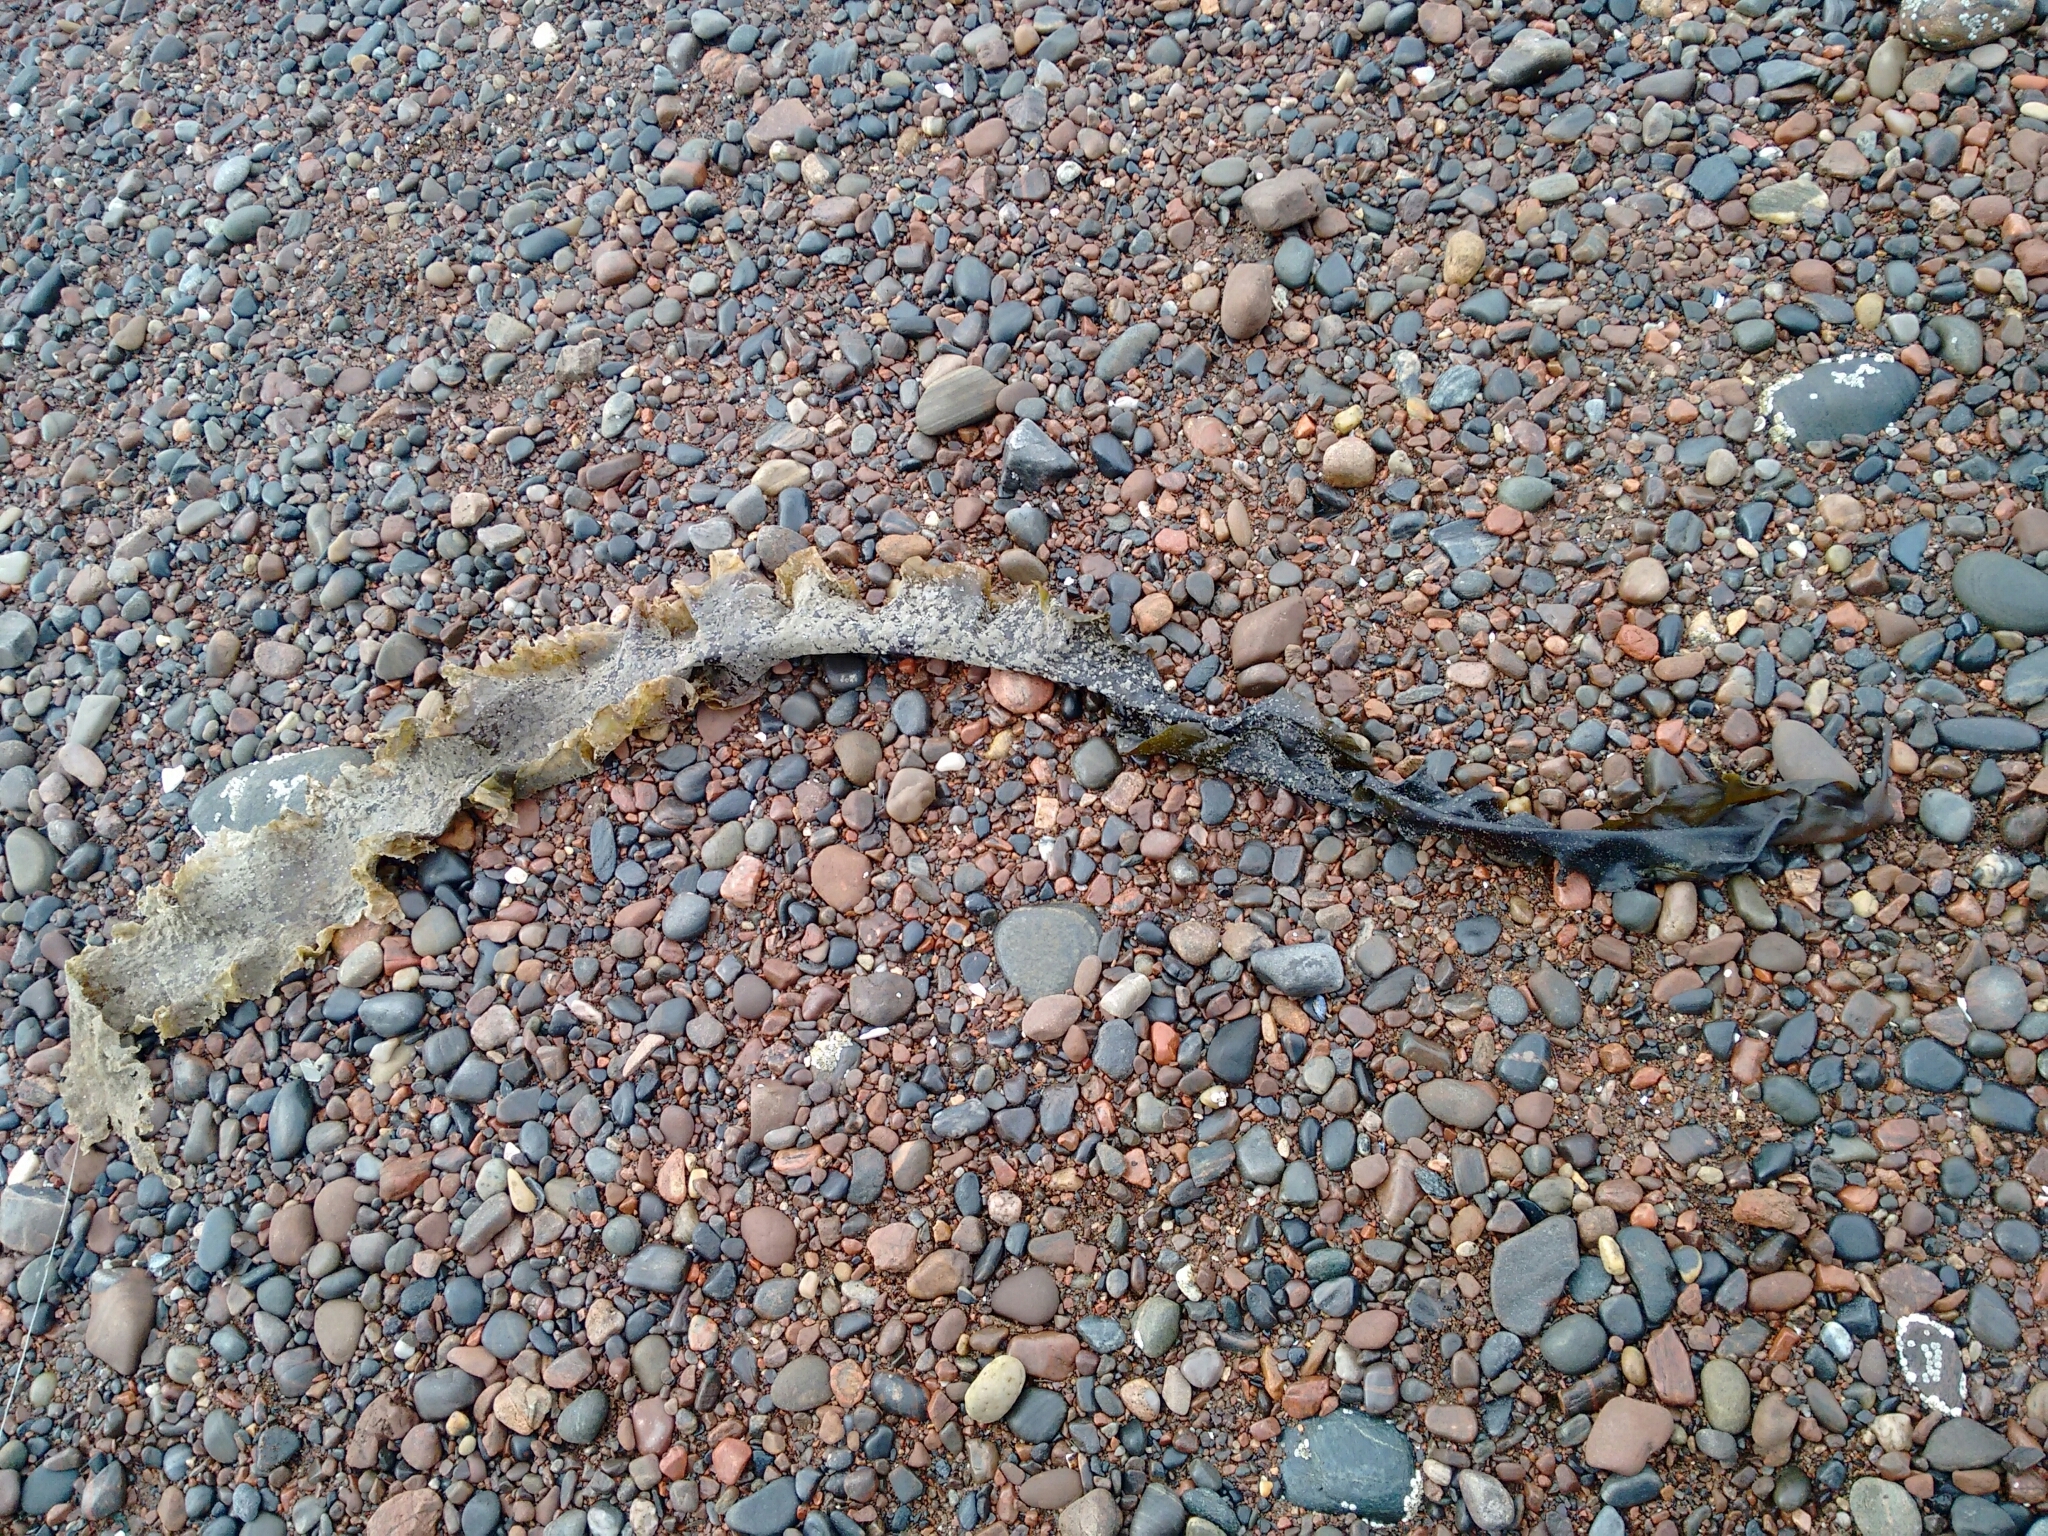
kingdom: Chromista
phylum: Ochrophyta
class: Phaeophyceae
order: Laminariales
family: Laminariaceae
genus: Saccharina
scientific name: Saccharina latissima
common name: Poor man's weather glass
